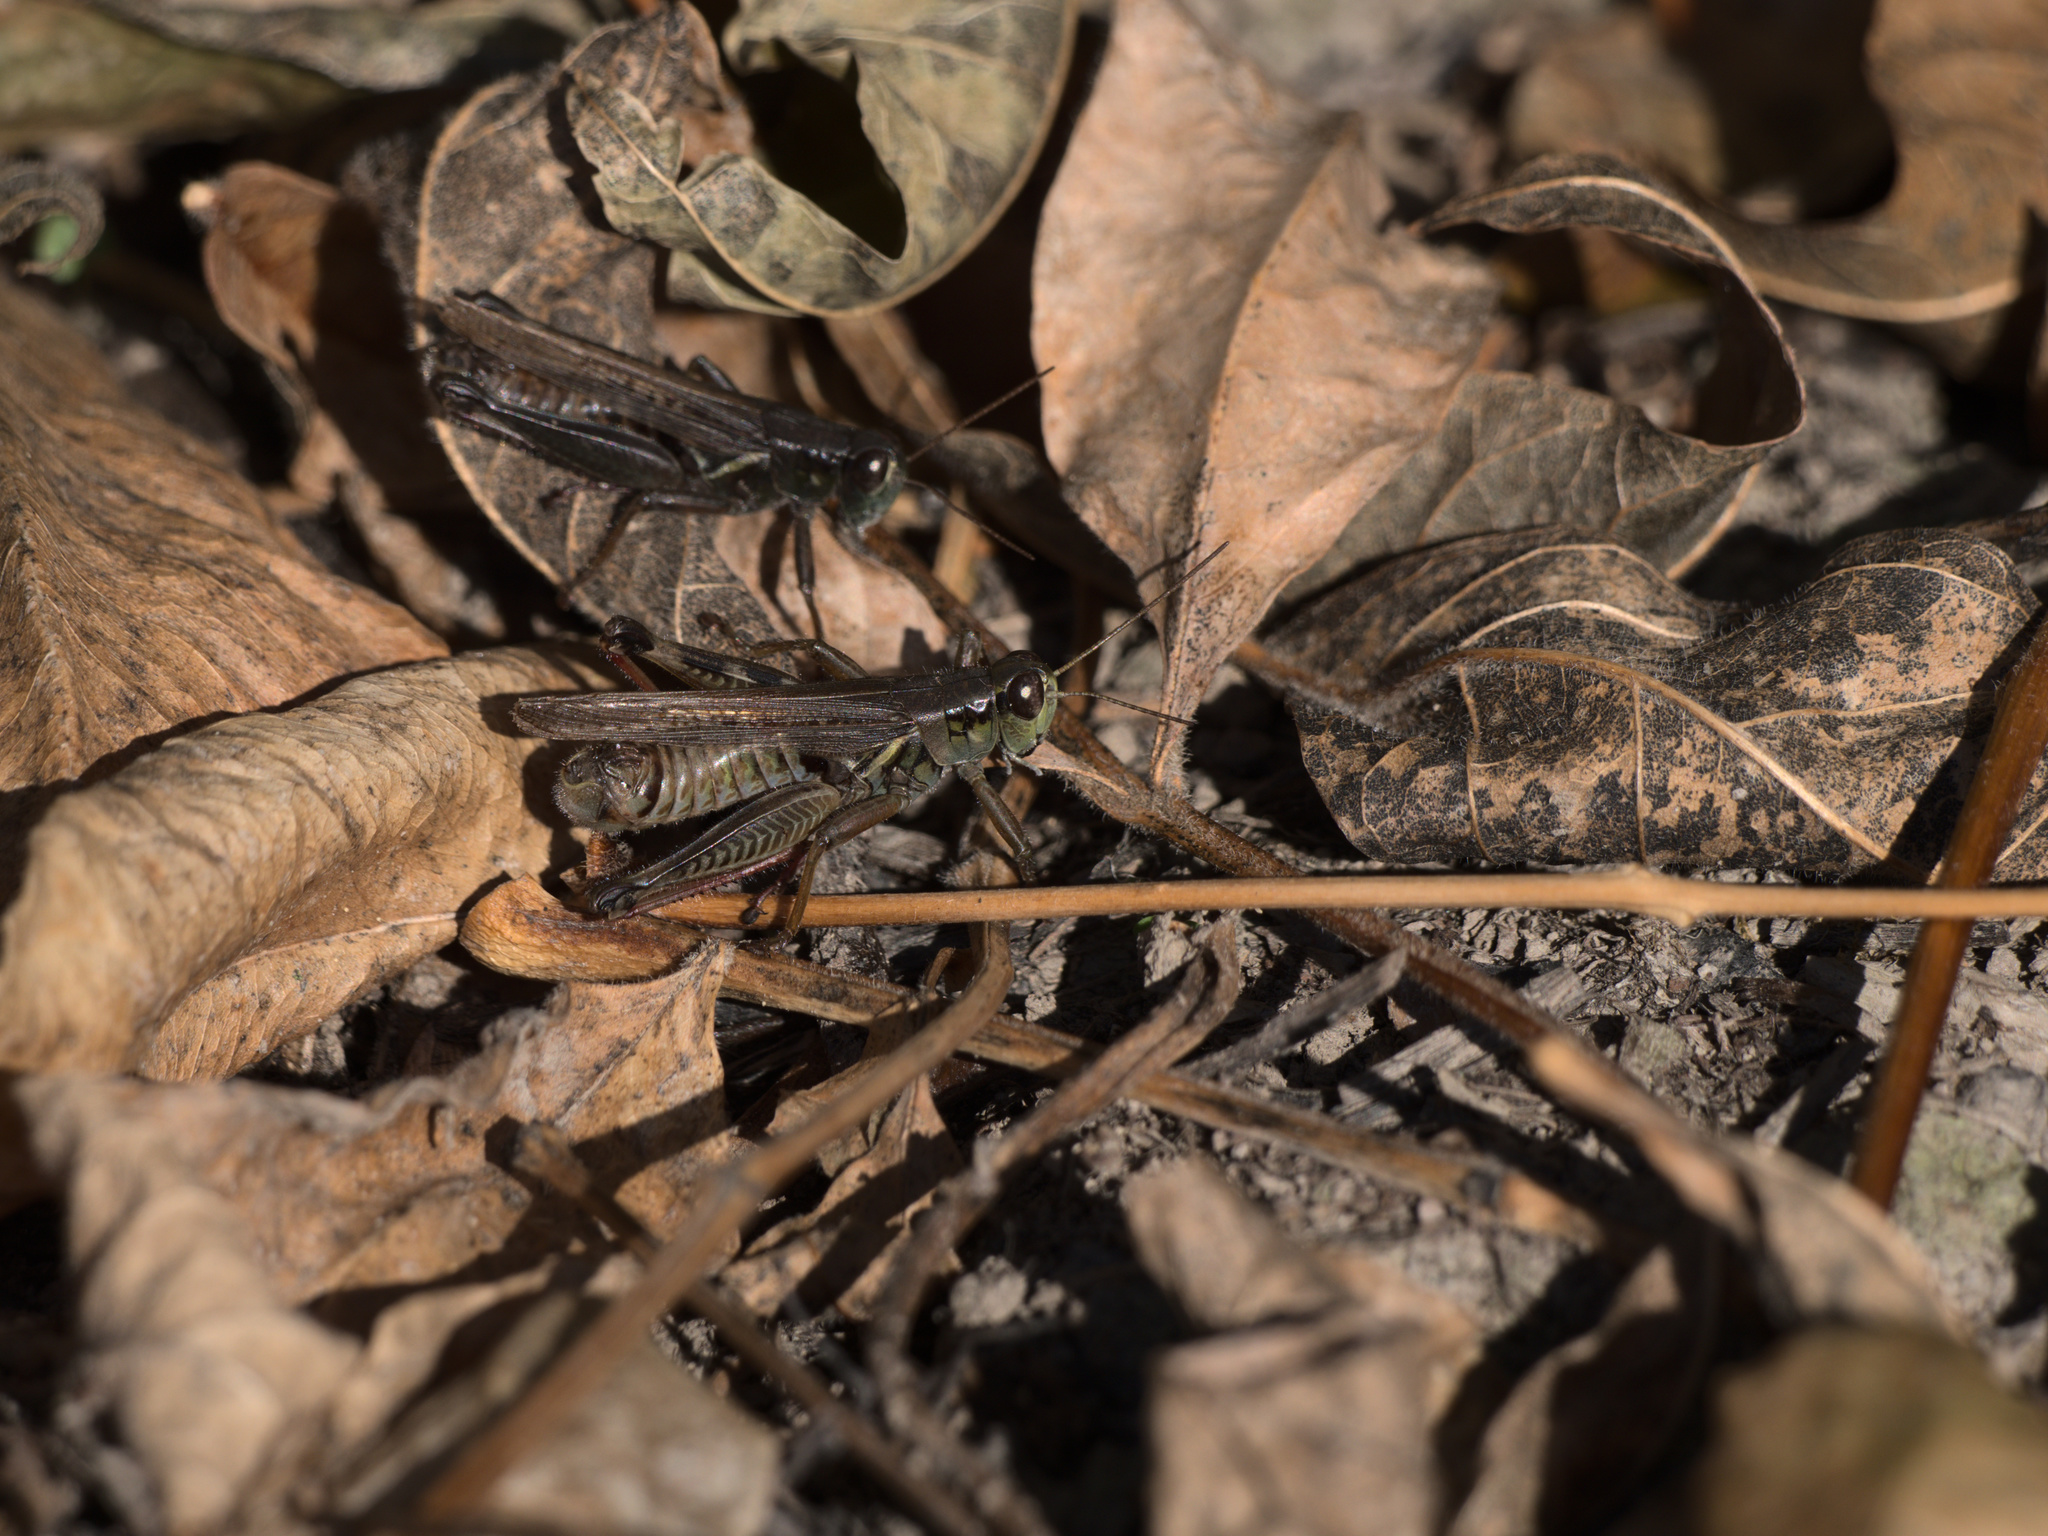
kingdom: Animalia
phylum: Arthropoda
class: Insecta
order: Orthoptera
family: Acrididae
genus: Melanoplus
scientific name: Melanoplus femurrubrum
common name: Red-legged grasshopper
